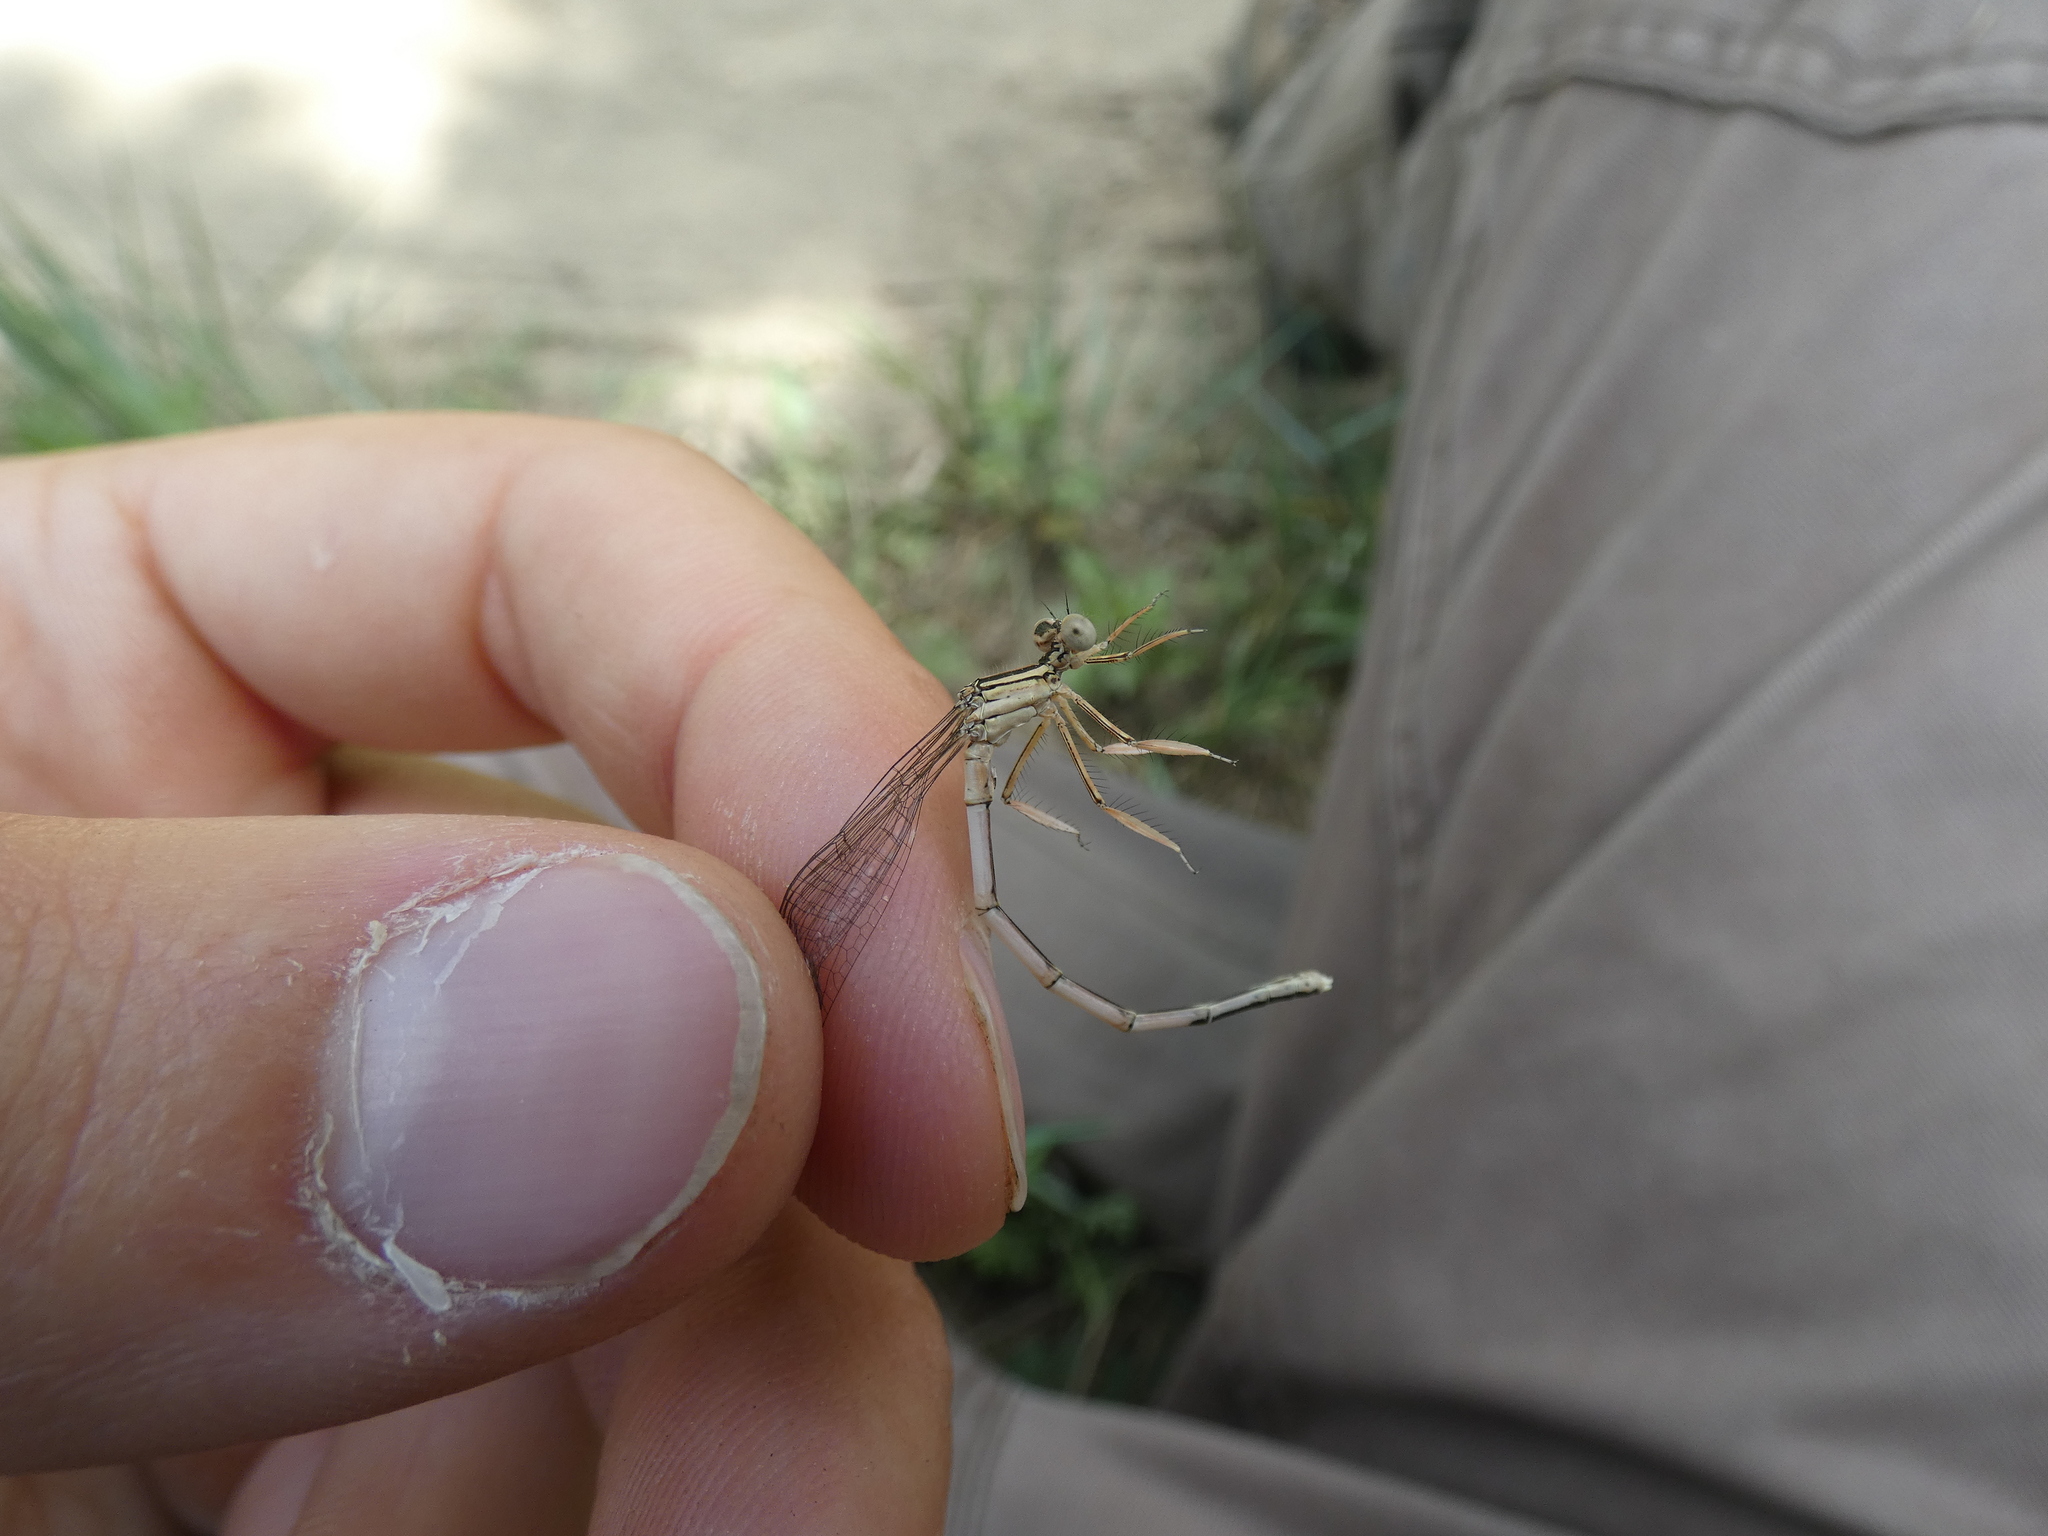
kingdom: Animalia
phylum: Arthropoda
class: Insecta
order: Odonata
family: Platycnemididae
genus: Platycnemis
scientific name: Platycnemis latipes
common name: White featherleg
